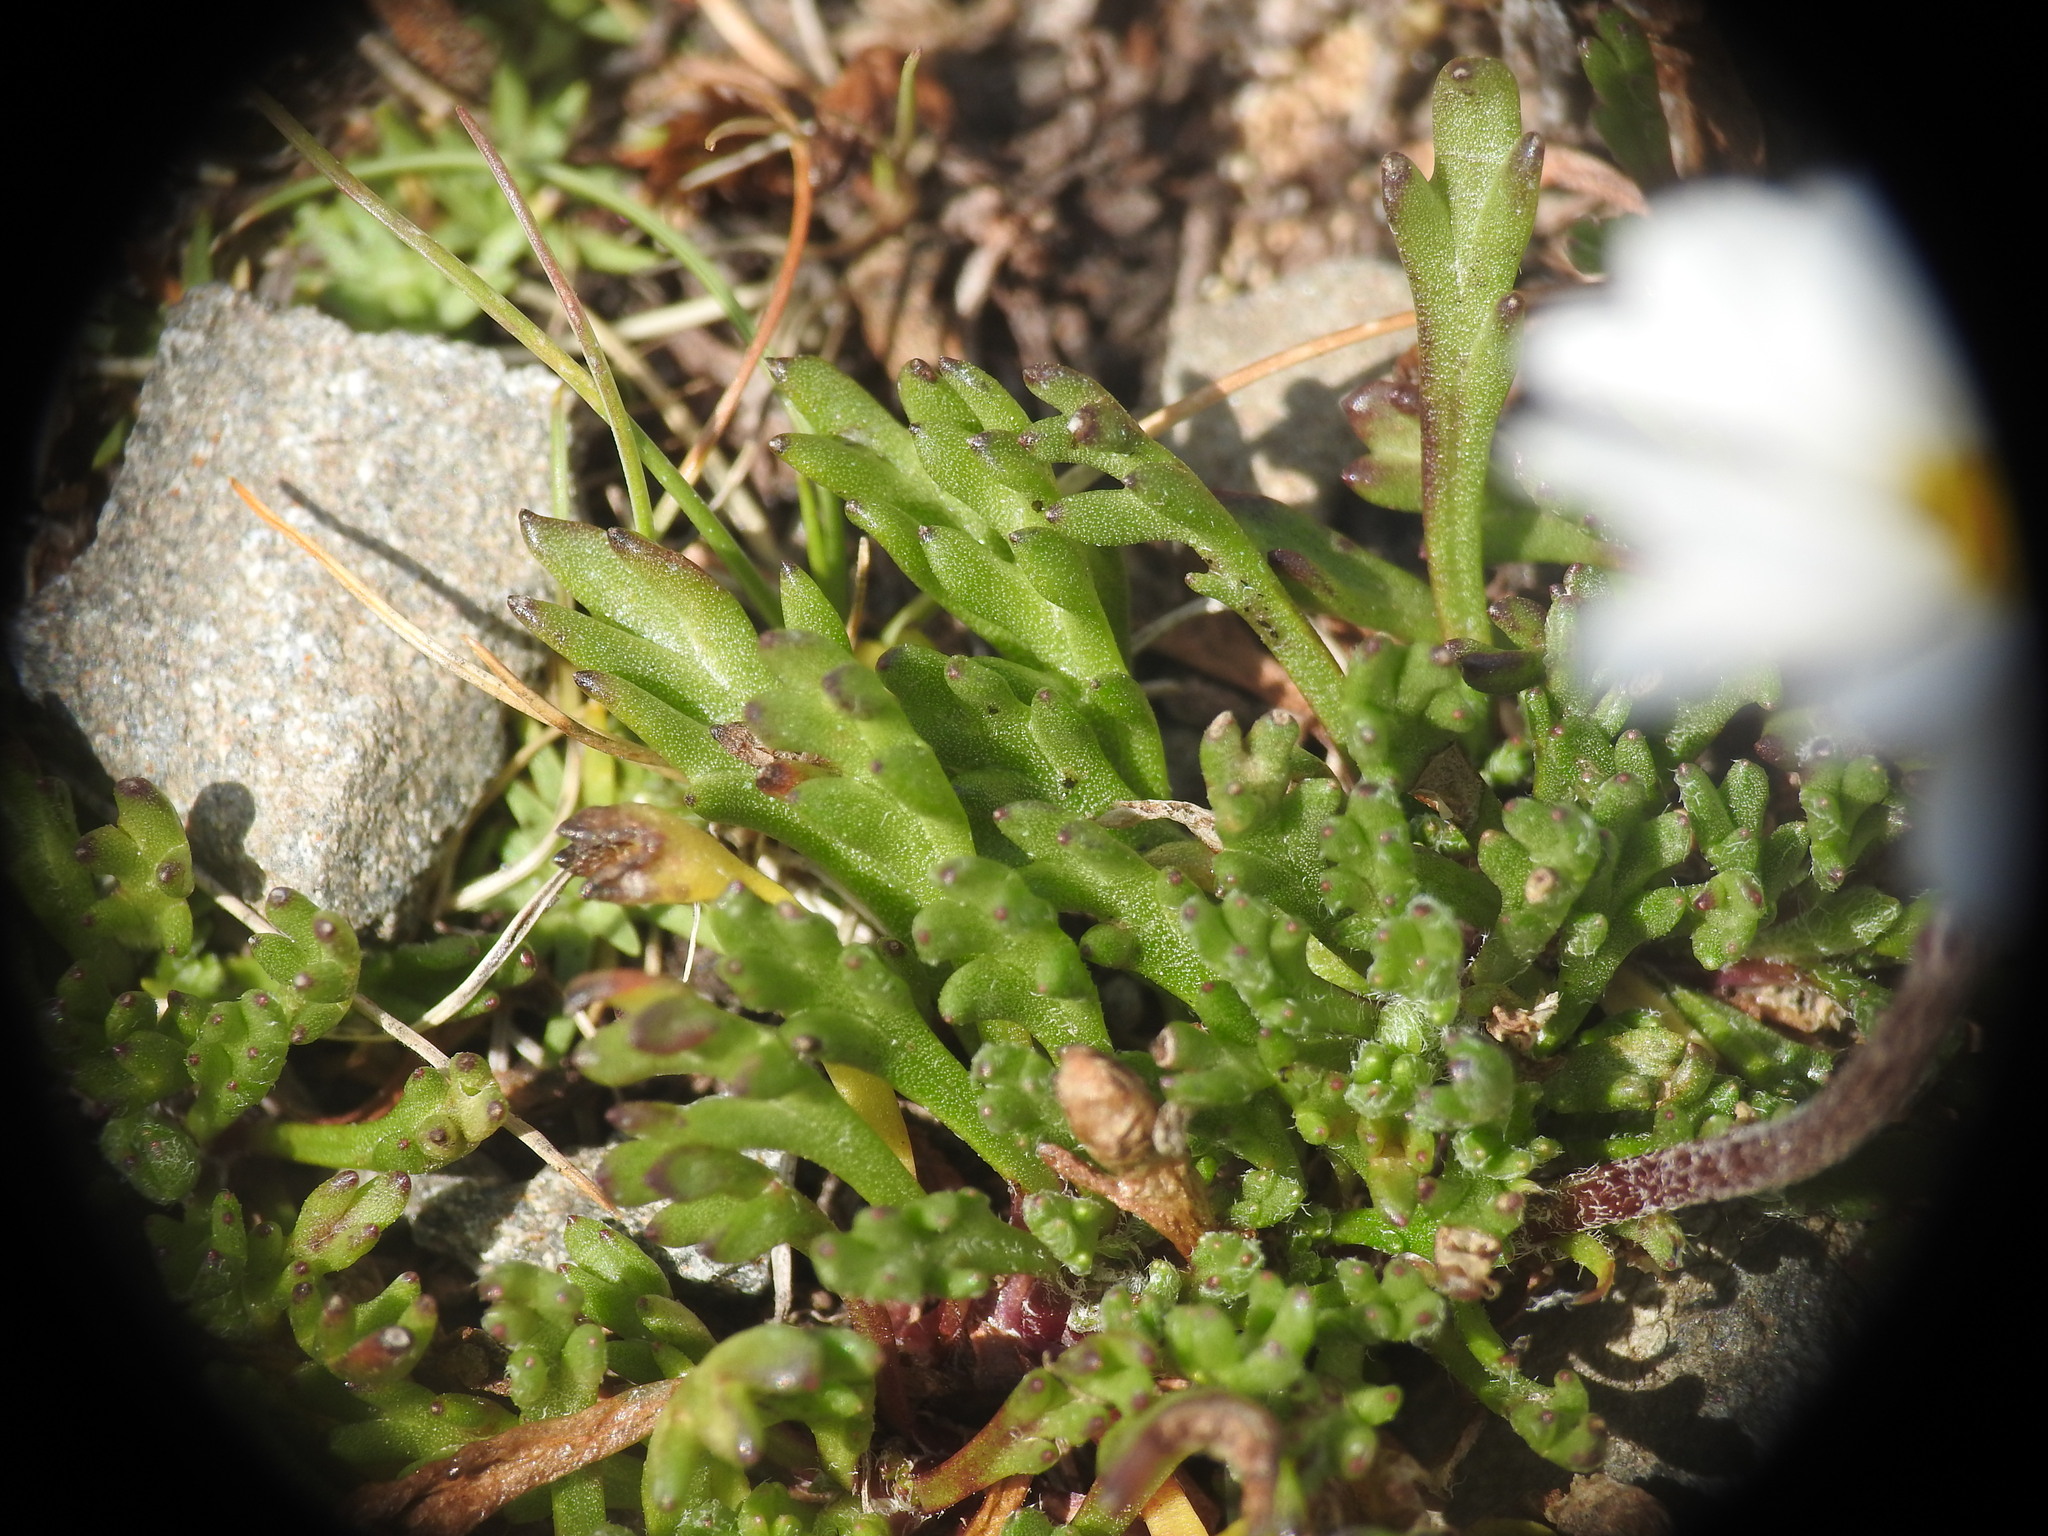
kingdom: Plantae
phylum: Tracheophyta
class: Magnoliopsida
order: Asterales
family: Asteraceae
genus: Leucanthemopsis
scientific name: Leucanthemopsis alpina
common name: Alpine moon daisy
